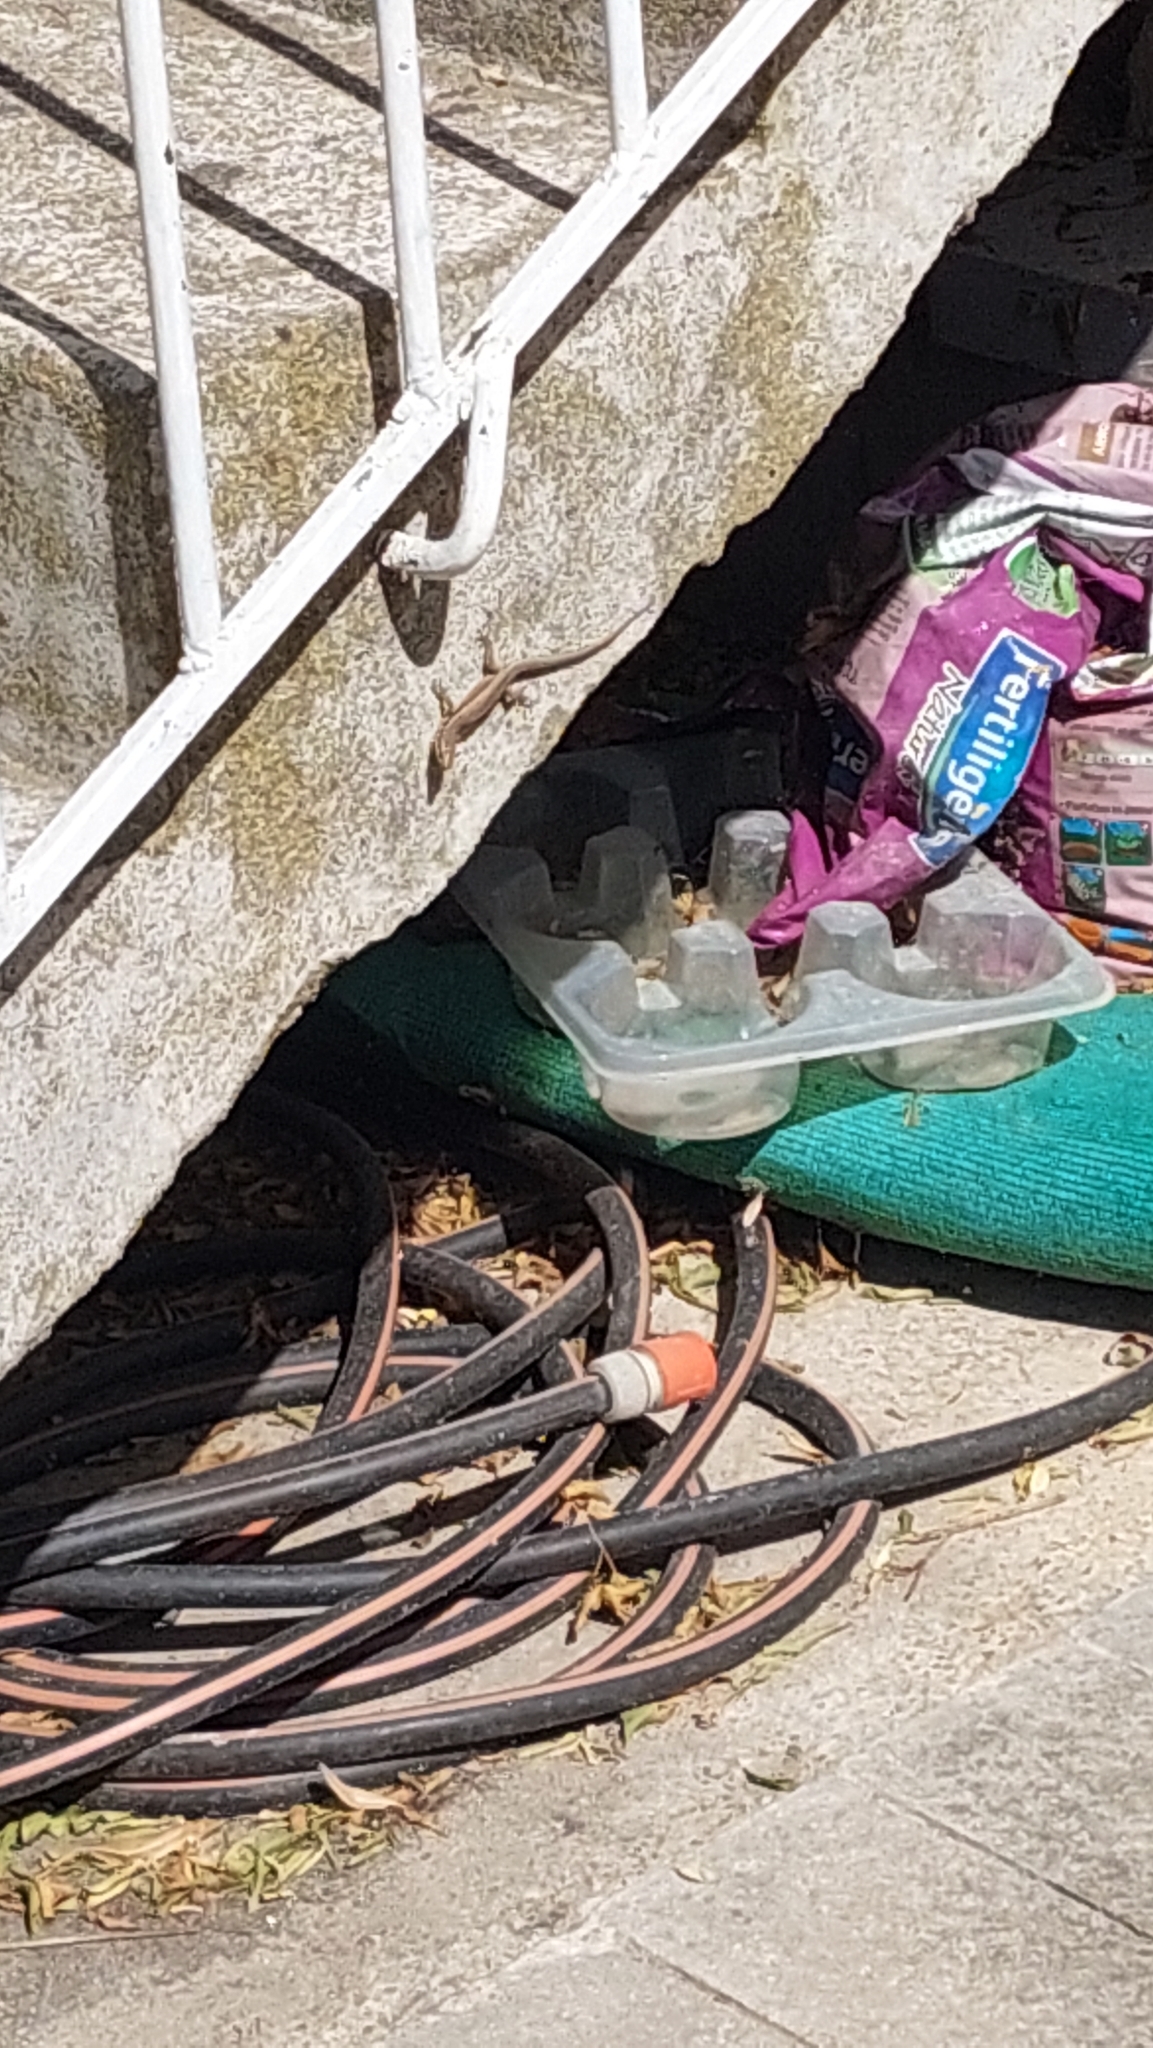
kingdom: Animalia
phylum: Chordata
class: Squamata
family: Lacertidae
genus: Podarcis
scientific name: Podarcis muralis
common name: Common wall lizard
